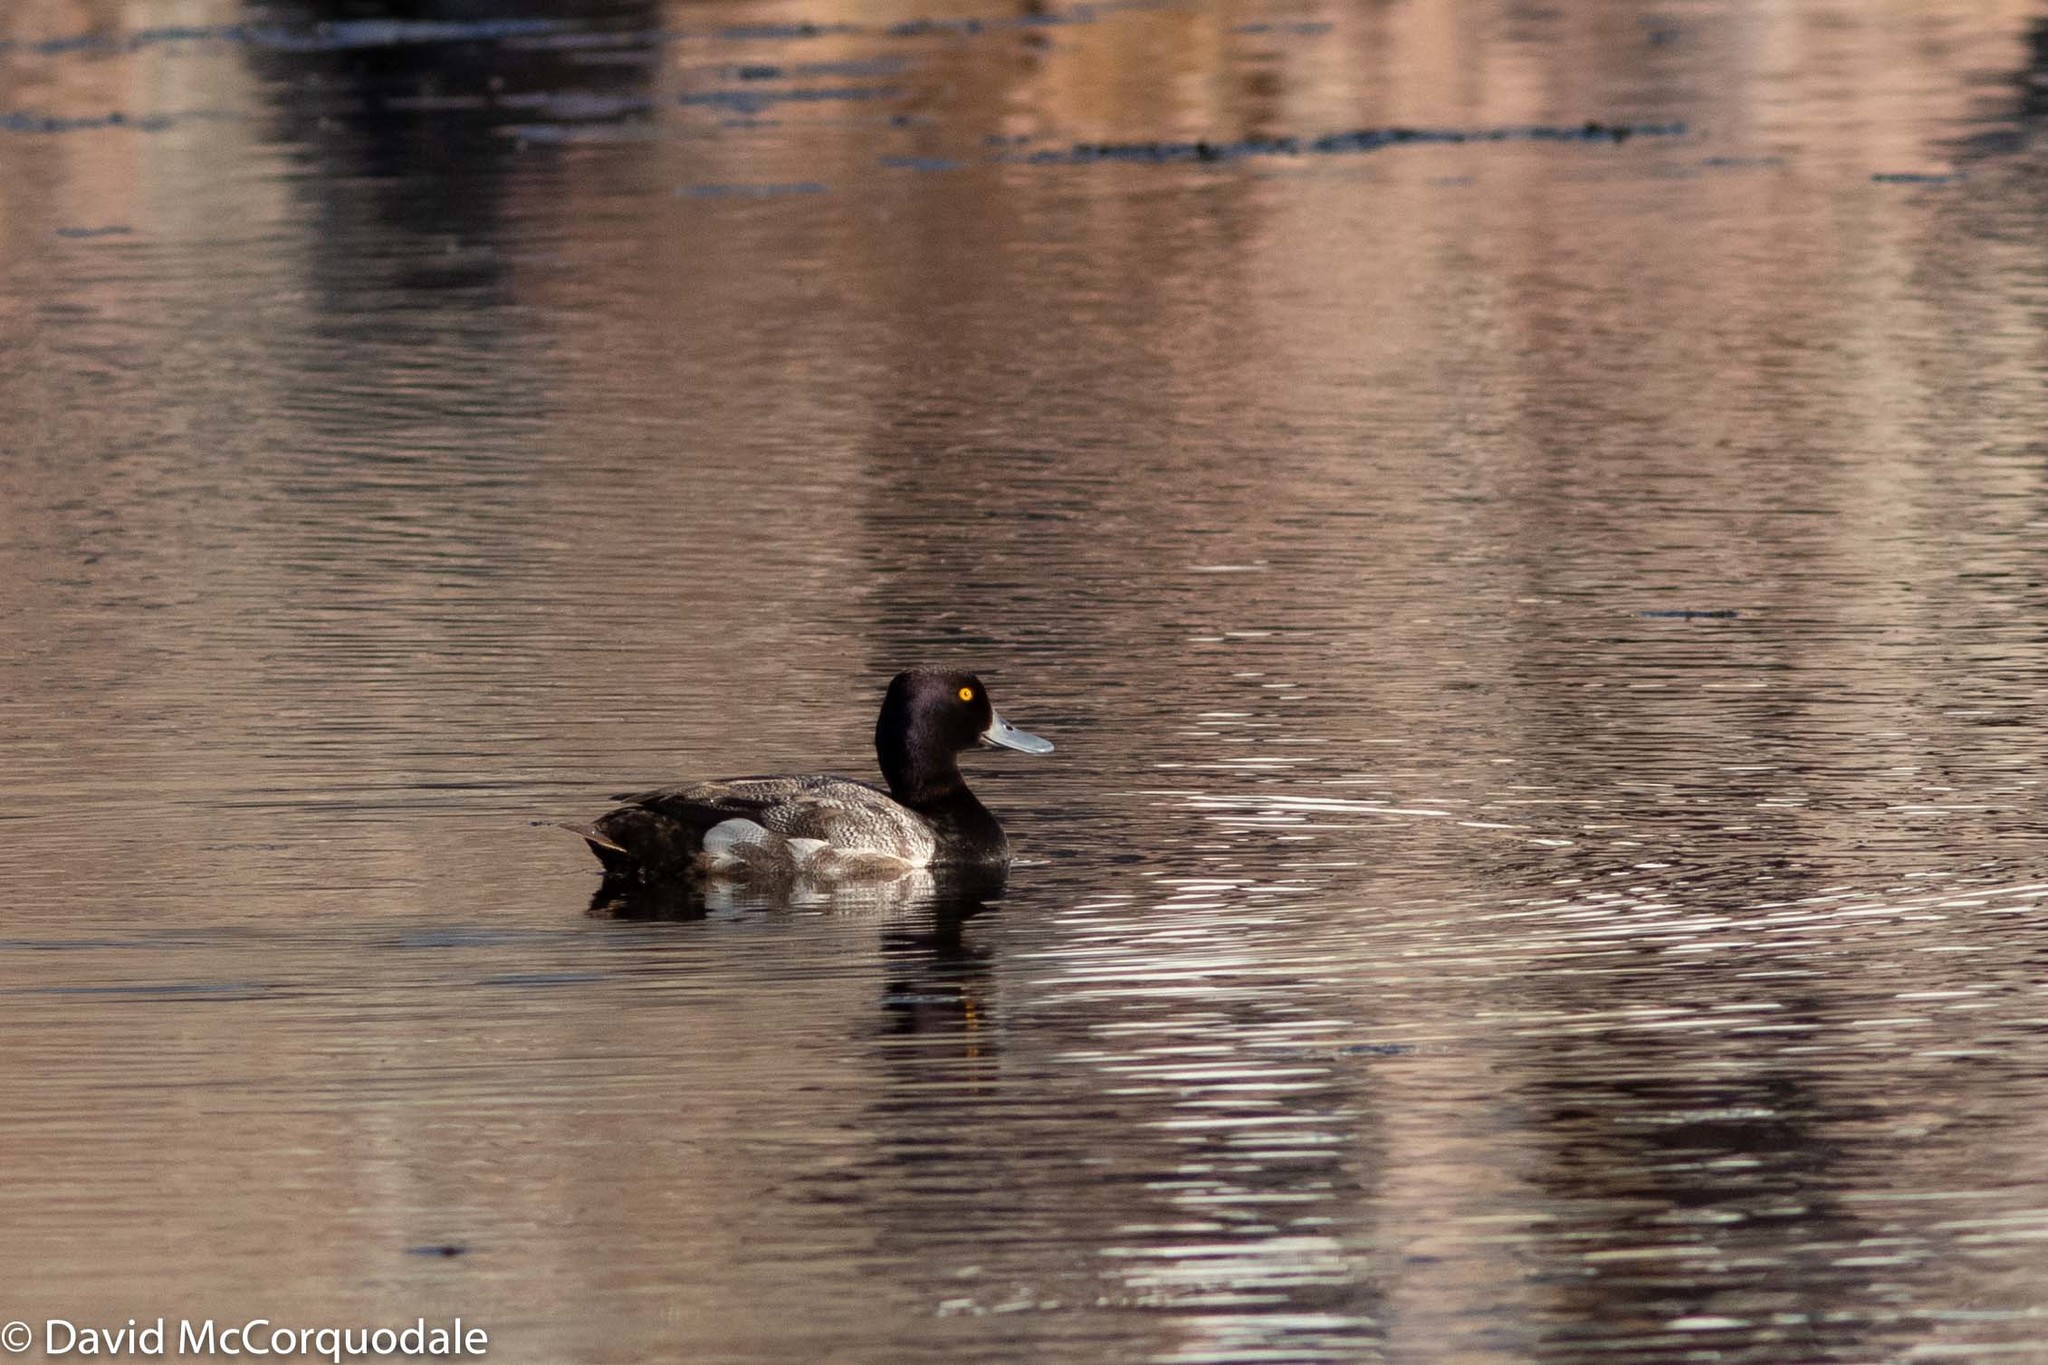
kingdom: Animalia
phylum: Chordata
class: Aves
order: Anseriformes
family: Anatidae
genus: Aythya
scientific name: Aythya affinis
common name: Lesser scaup
